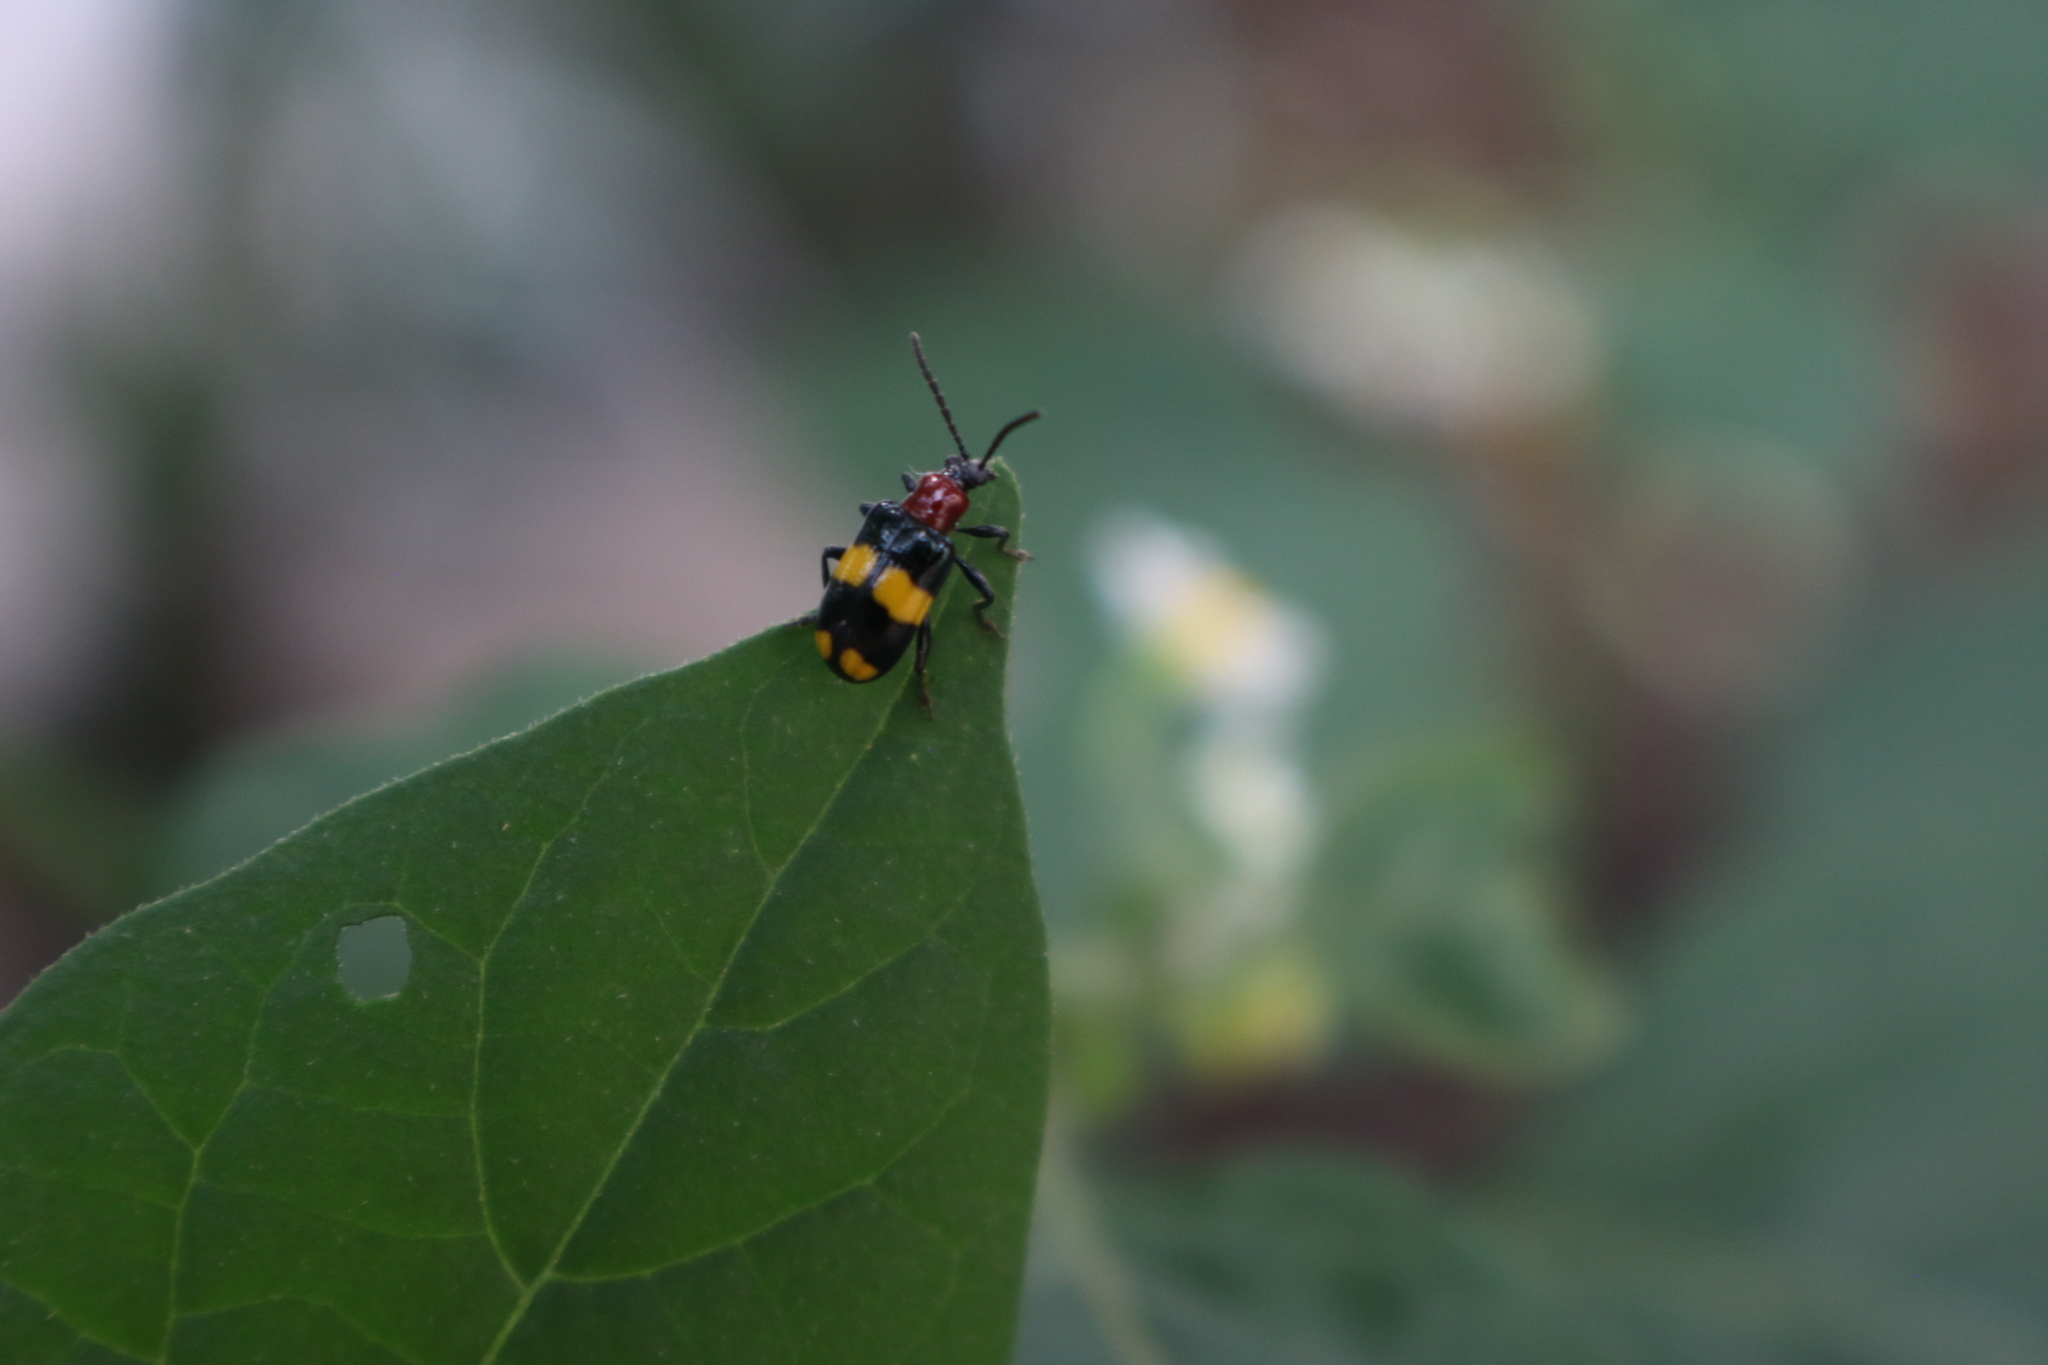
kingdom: Animalia
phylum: Arthropoda
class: Insecta
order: Coleoptera
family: Chrysomelidae
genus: Lema
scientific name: Lema
